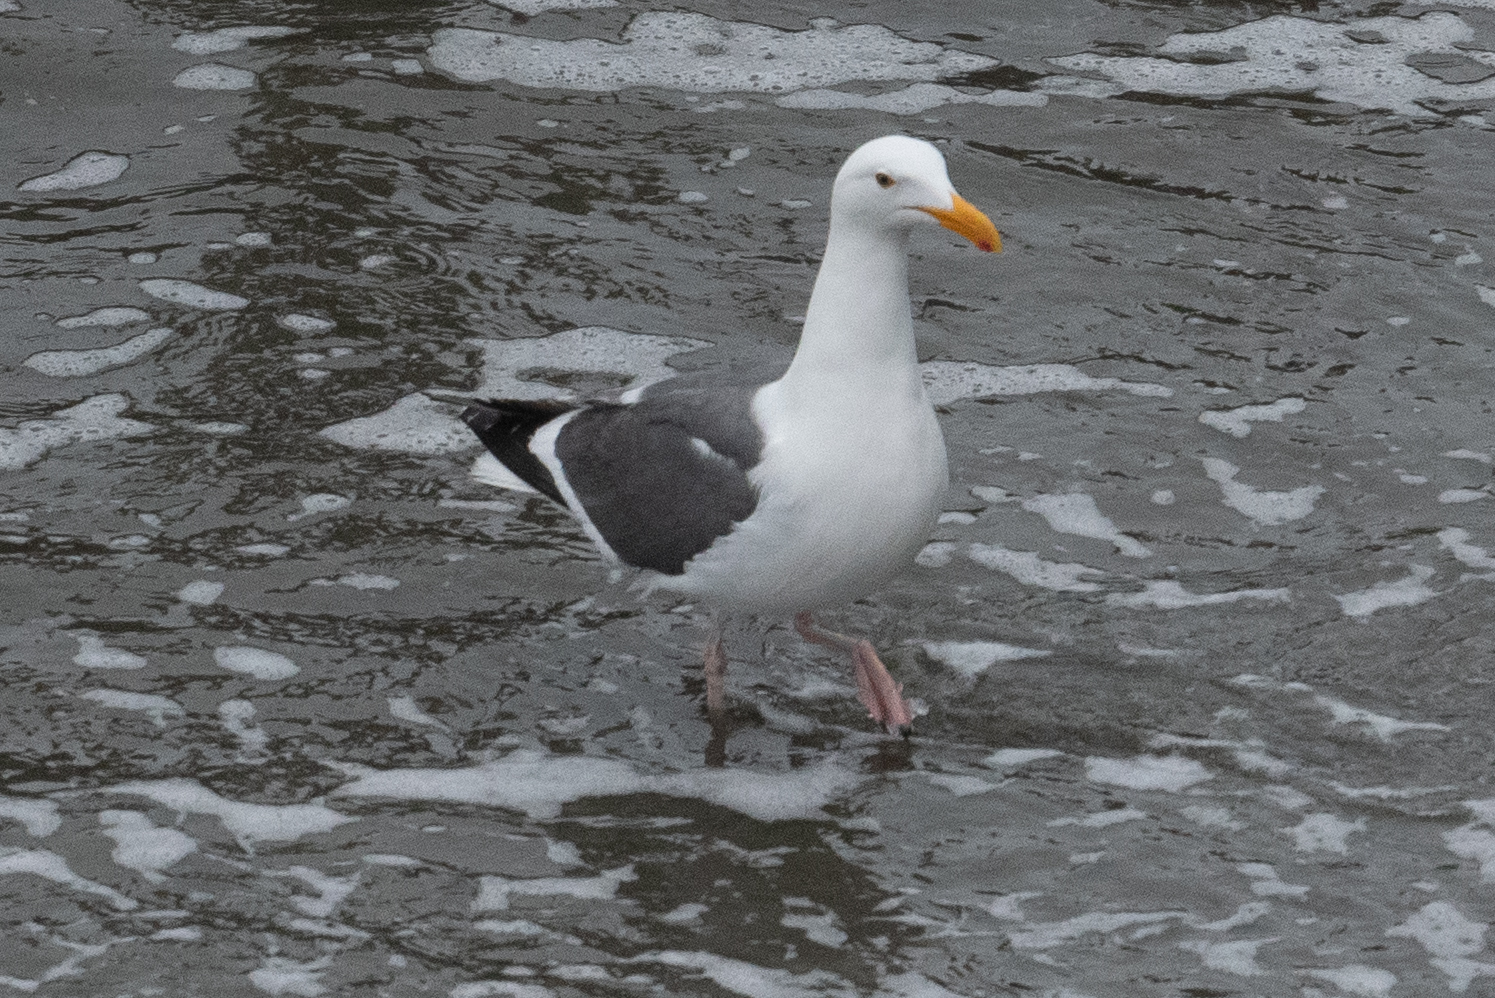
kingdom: Animalia
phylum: Chordata
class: Aves
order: Charadriiformes
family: Laridae
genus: Larus
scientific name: Larus occidentalis
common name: Western gull
